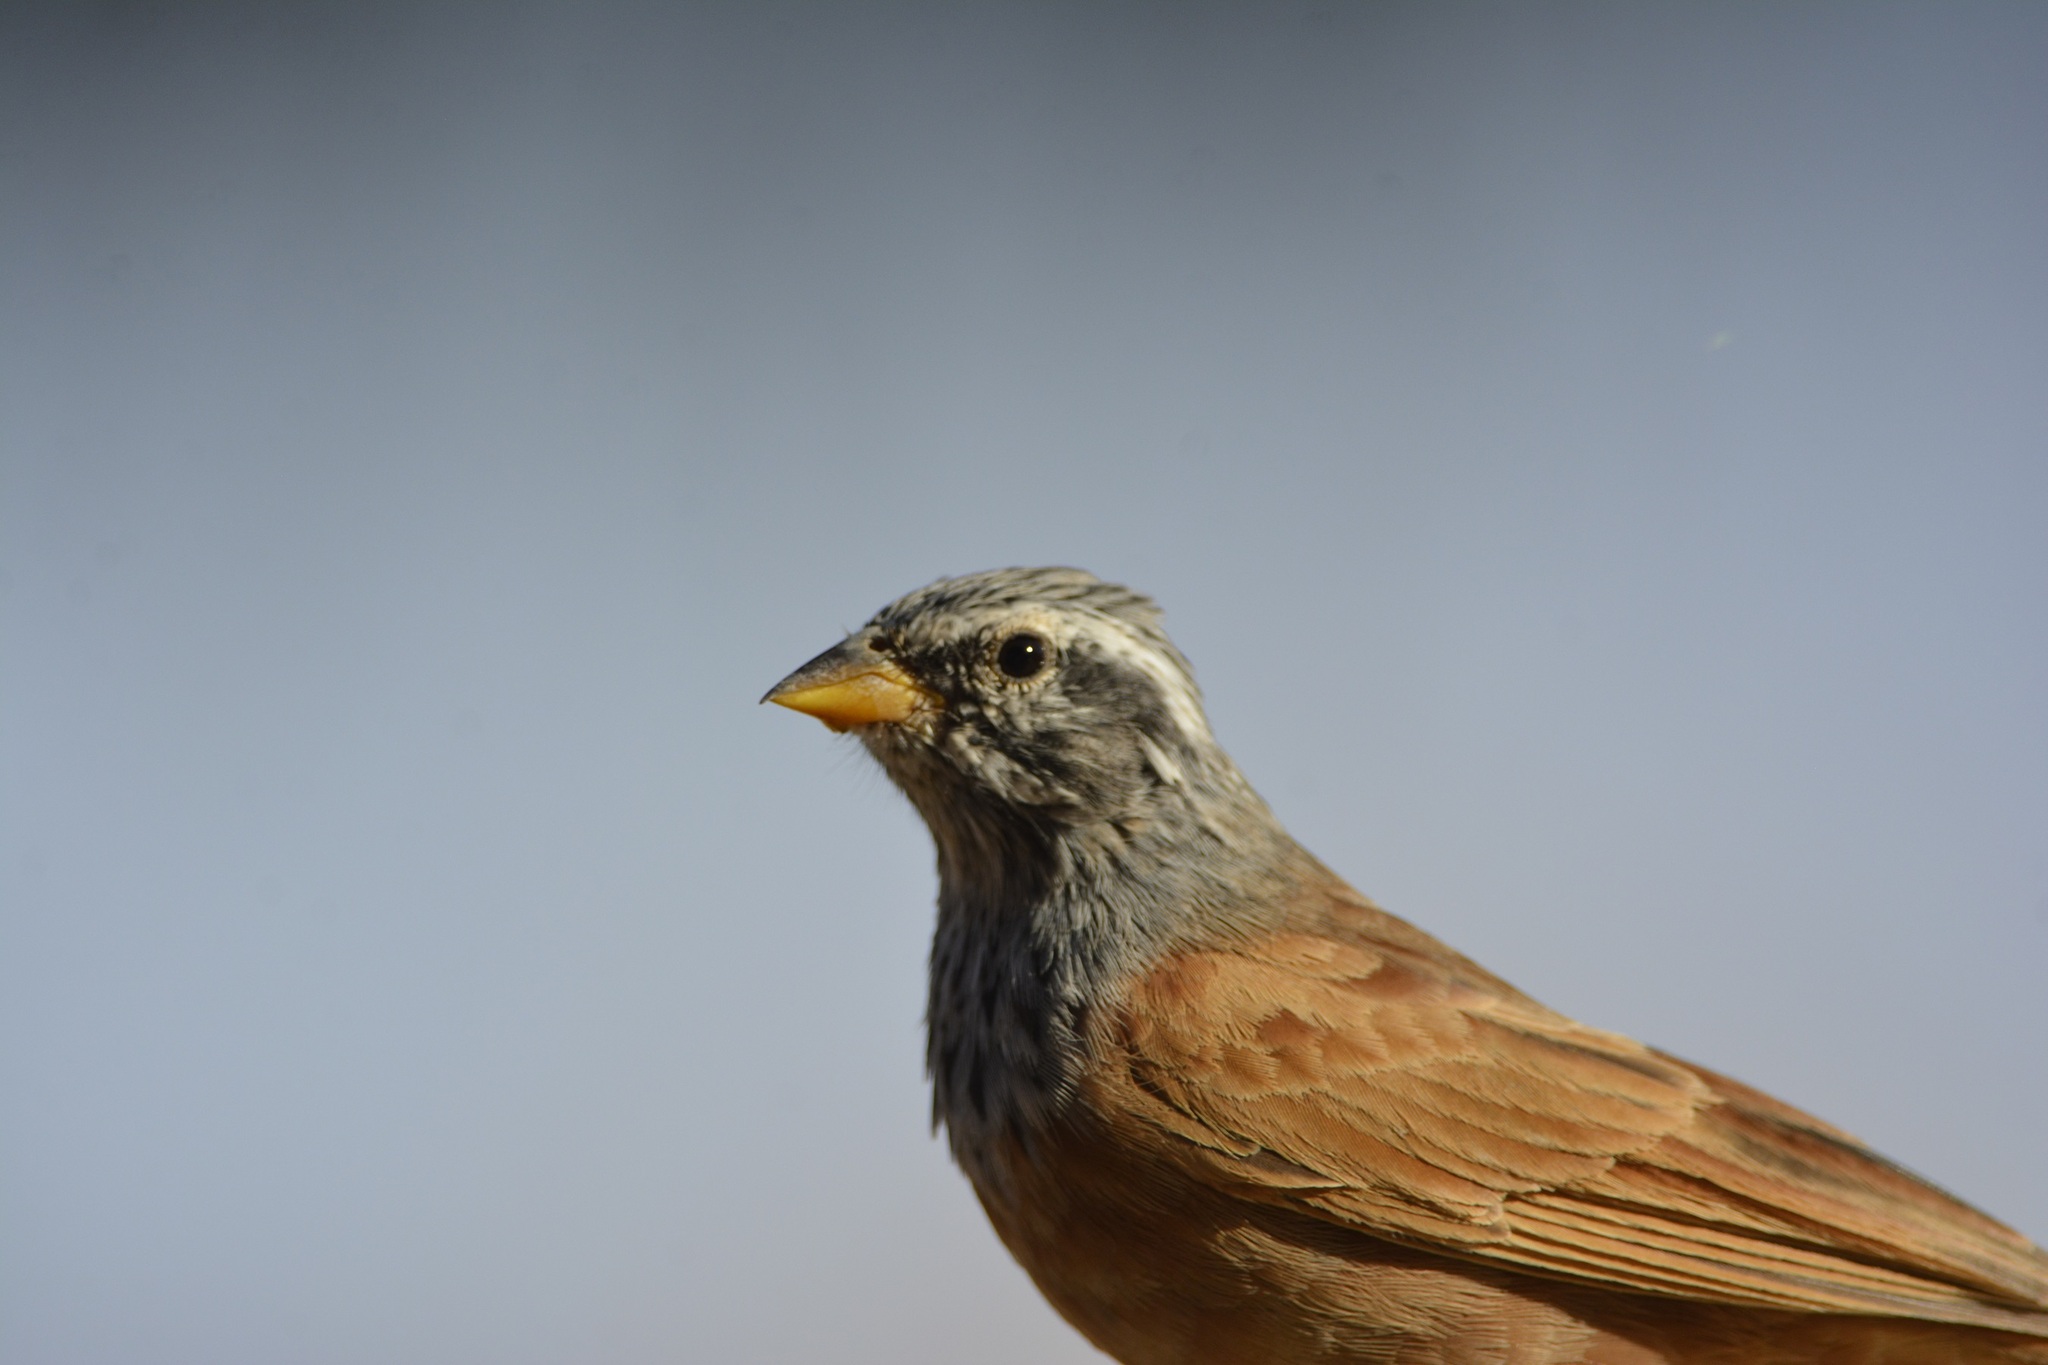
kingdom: Animalia
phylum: Chordata
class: Aves
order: Passeriformes
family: Emberizidae
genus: Emberiza
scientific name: Emberiza sahari
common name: House bunting
